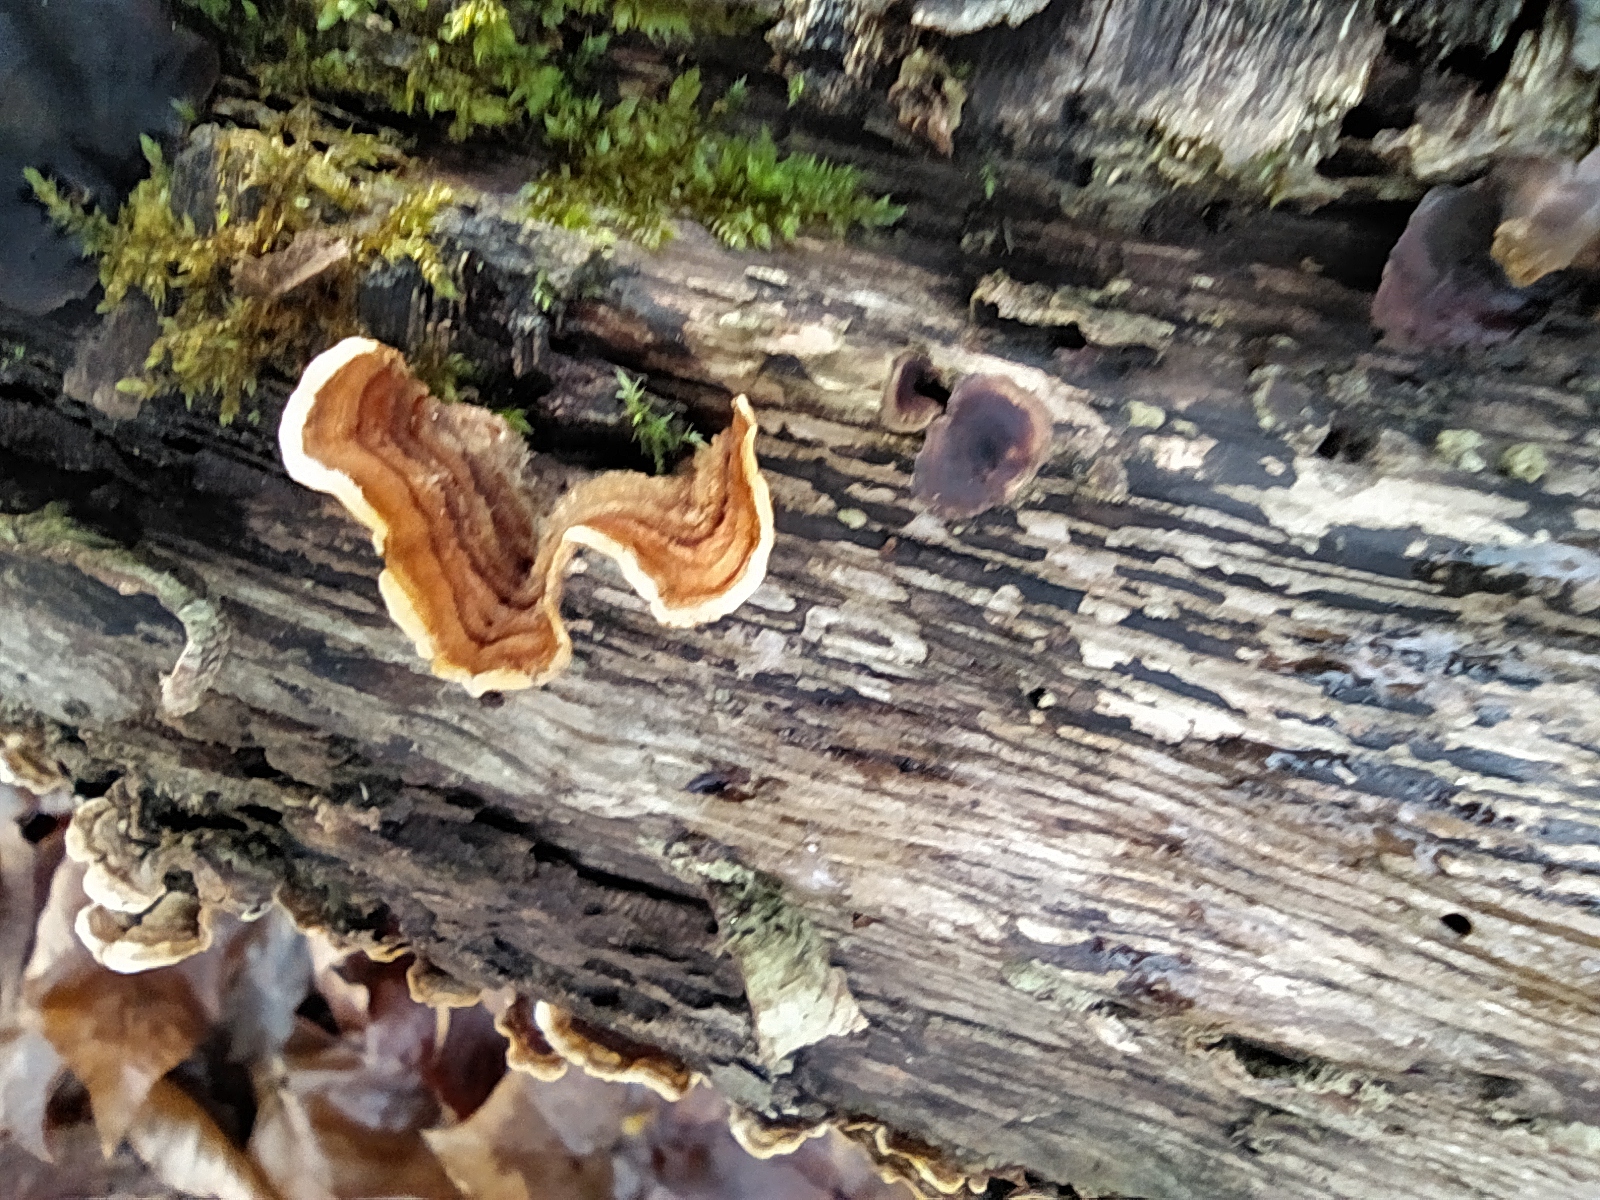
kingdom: Fungi
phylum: Basidiomycota
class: Agaricomycetes
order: Russulales
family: Stereaceae
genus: Stereum
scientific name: Stereum hirsutum
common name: Hairy curtain crust
